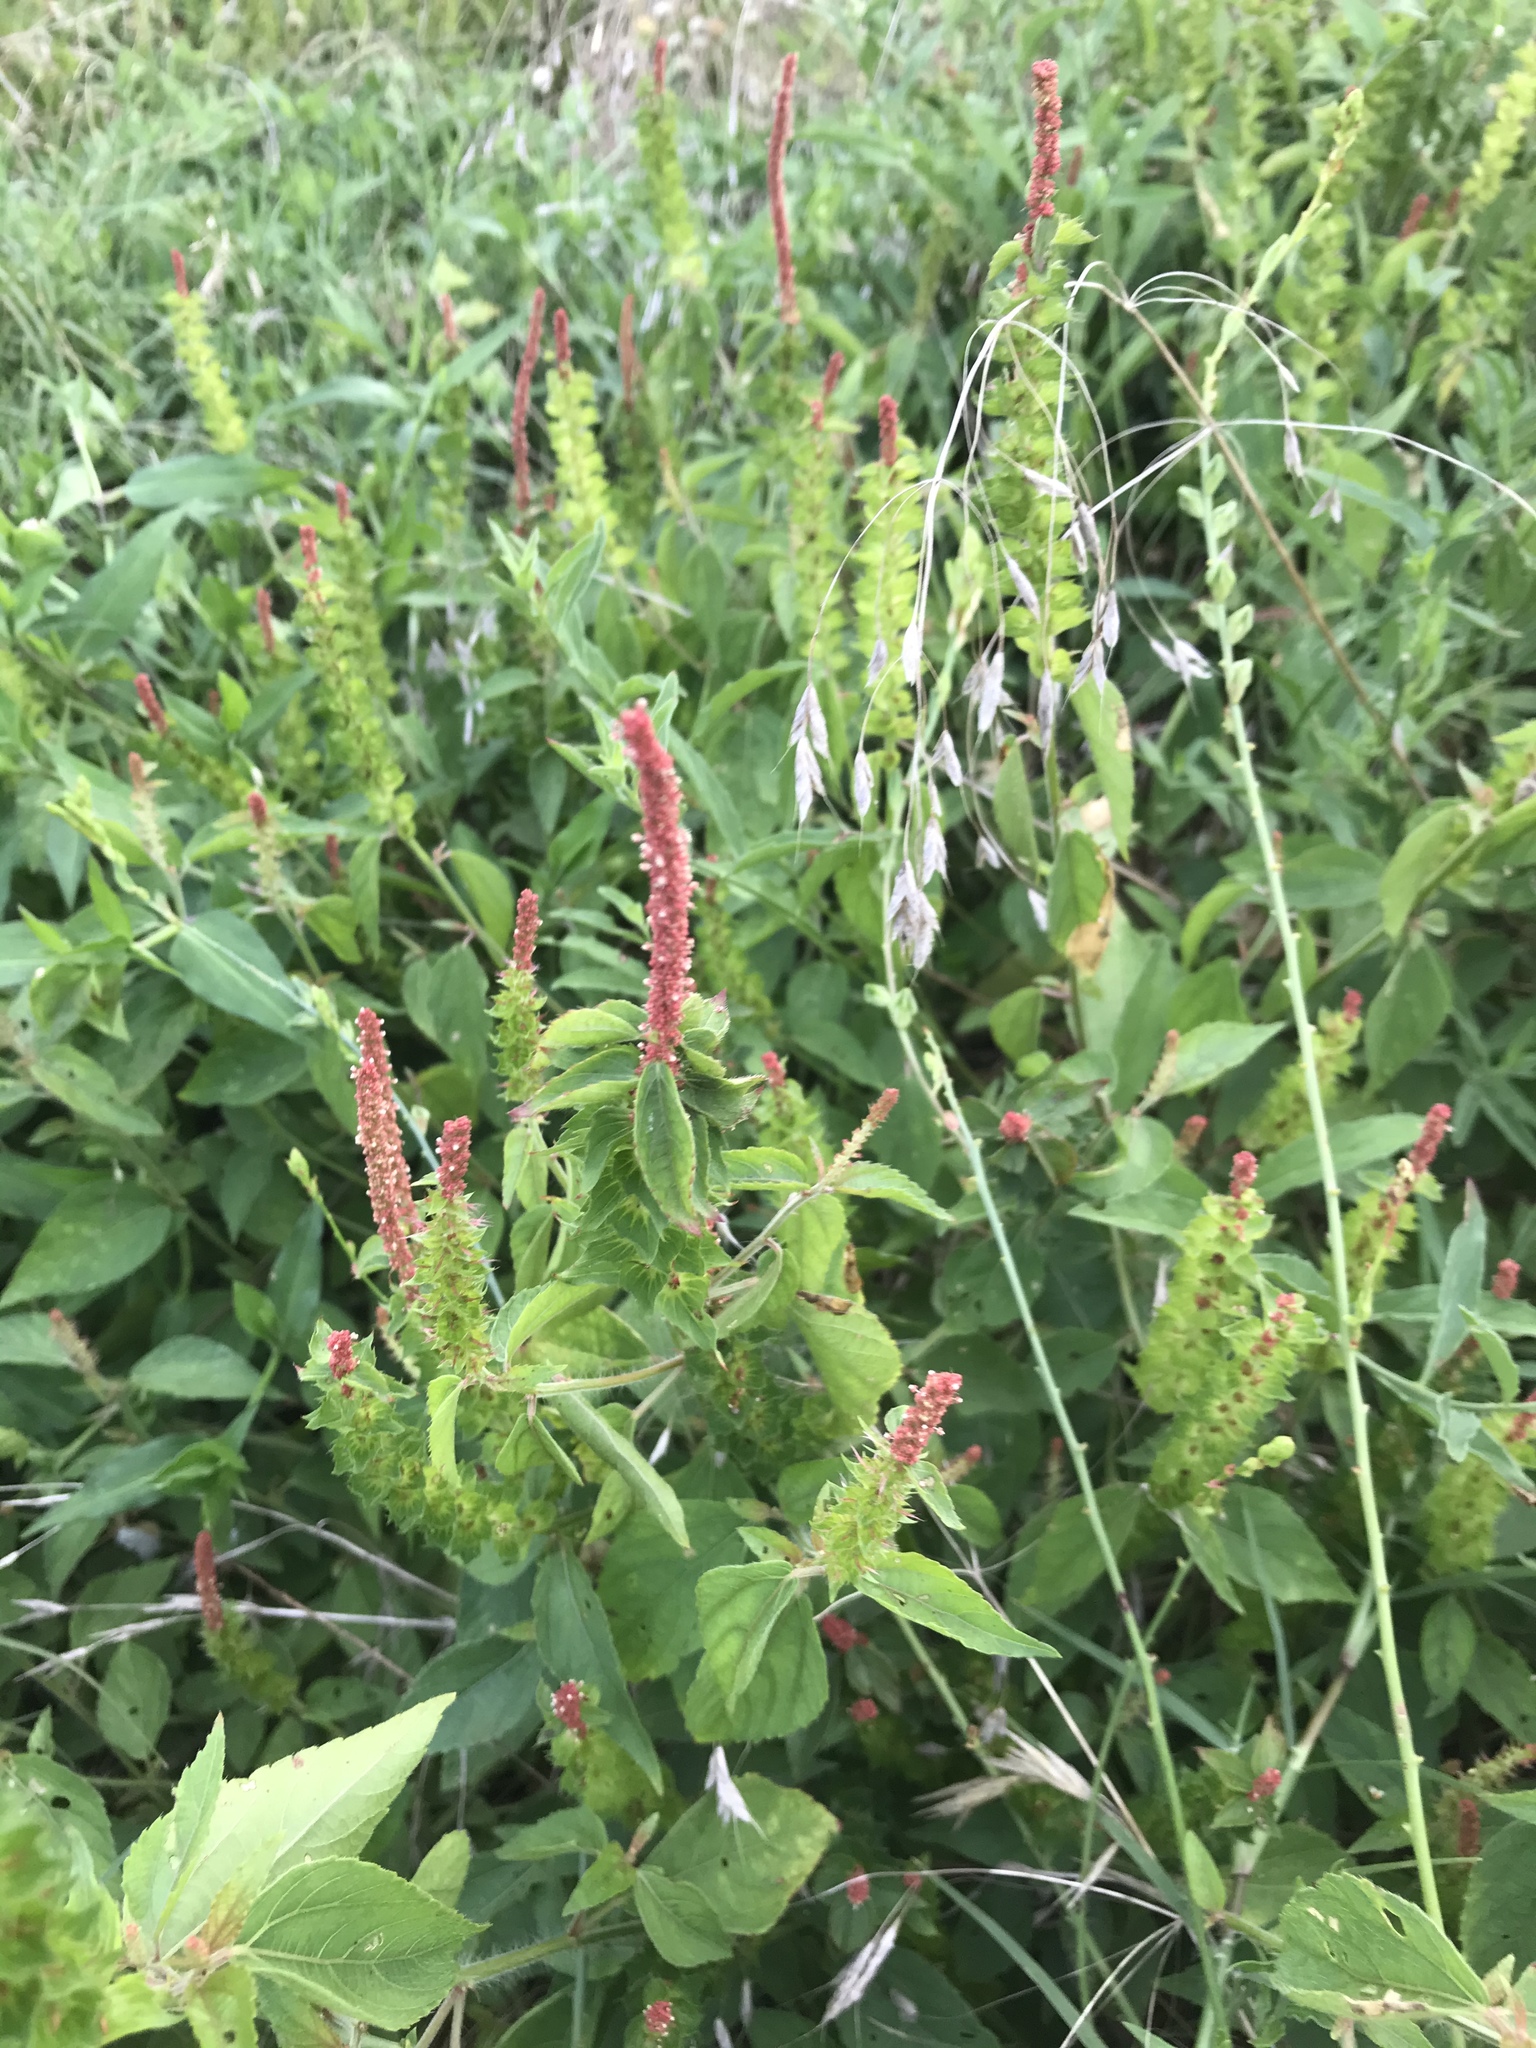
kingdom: Plantae
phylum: Tracheophyta
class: Magnoliopsida
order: Malpighiales
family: Euphorbiaceae
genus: Acalypha
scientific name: Acalypha phleoides
